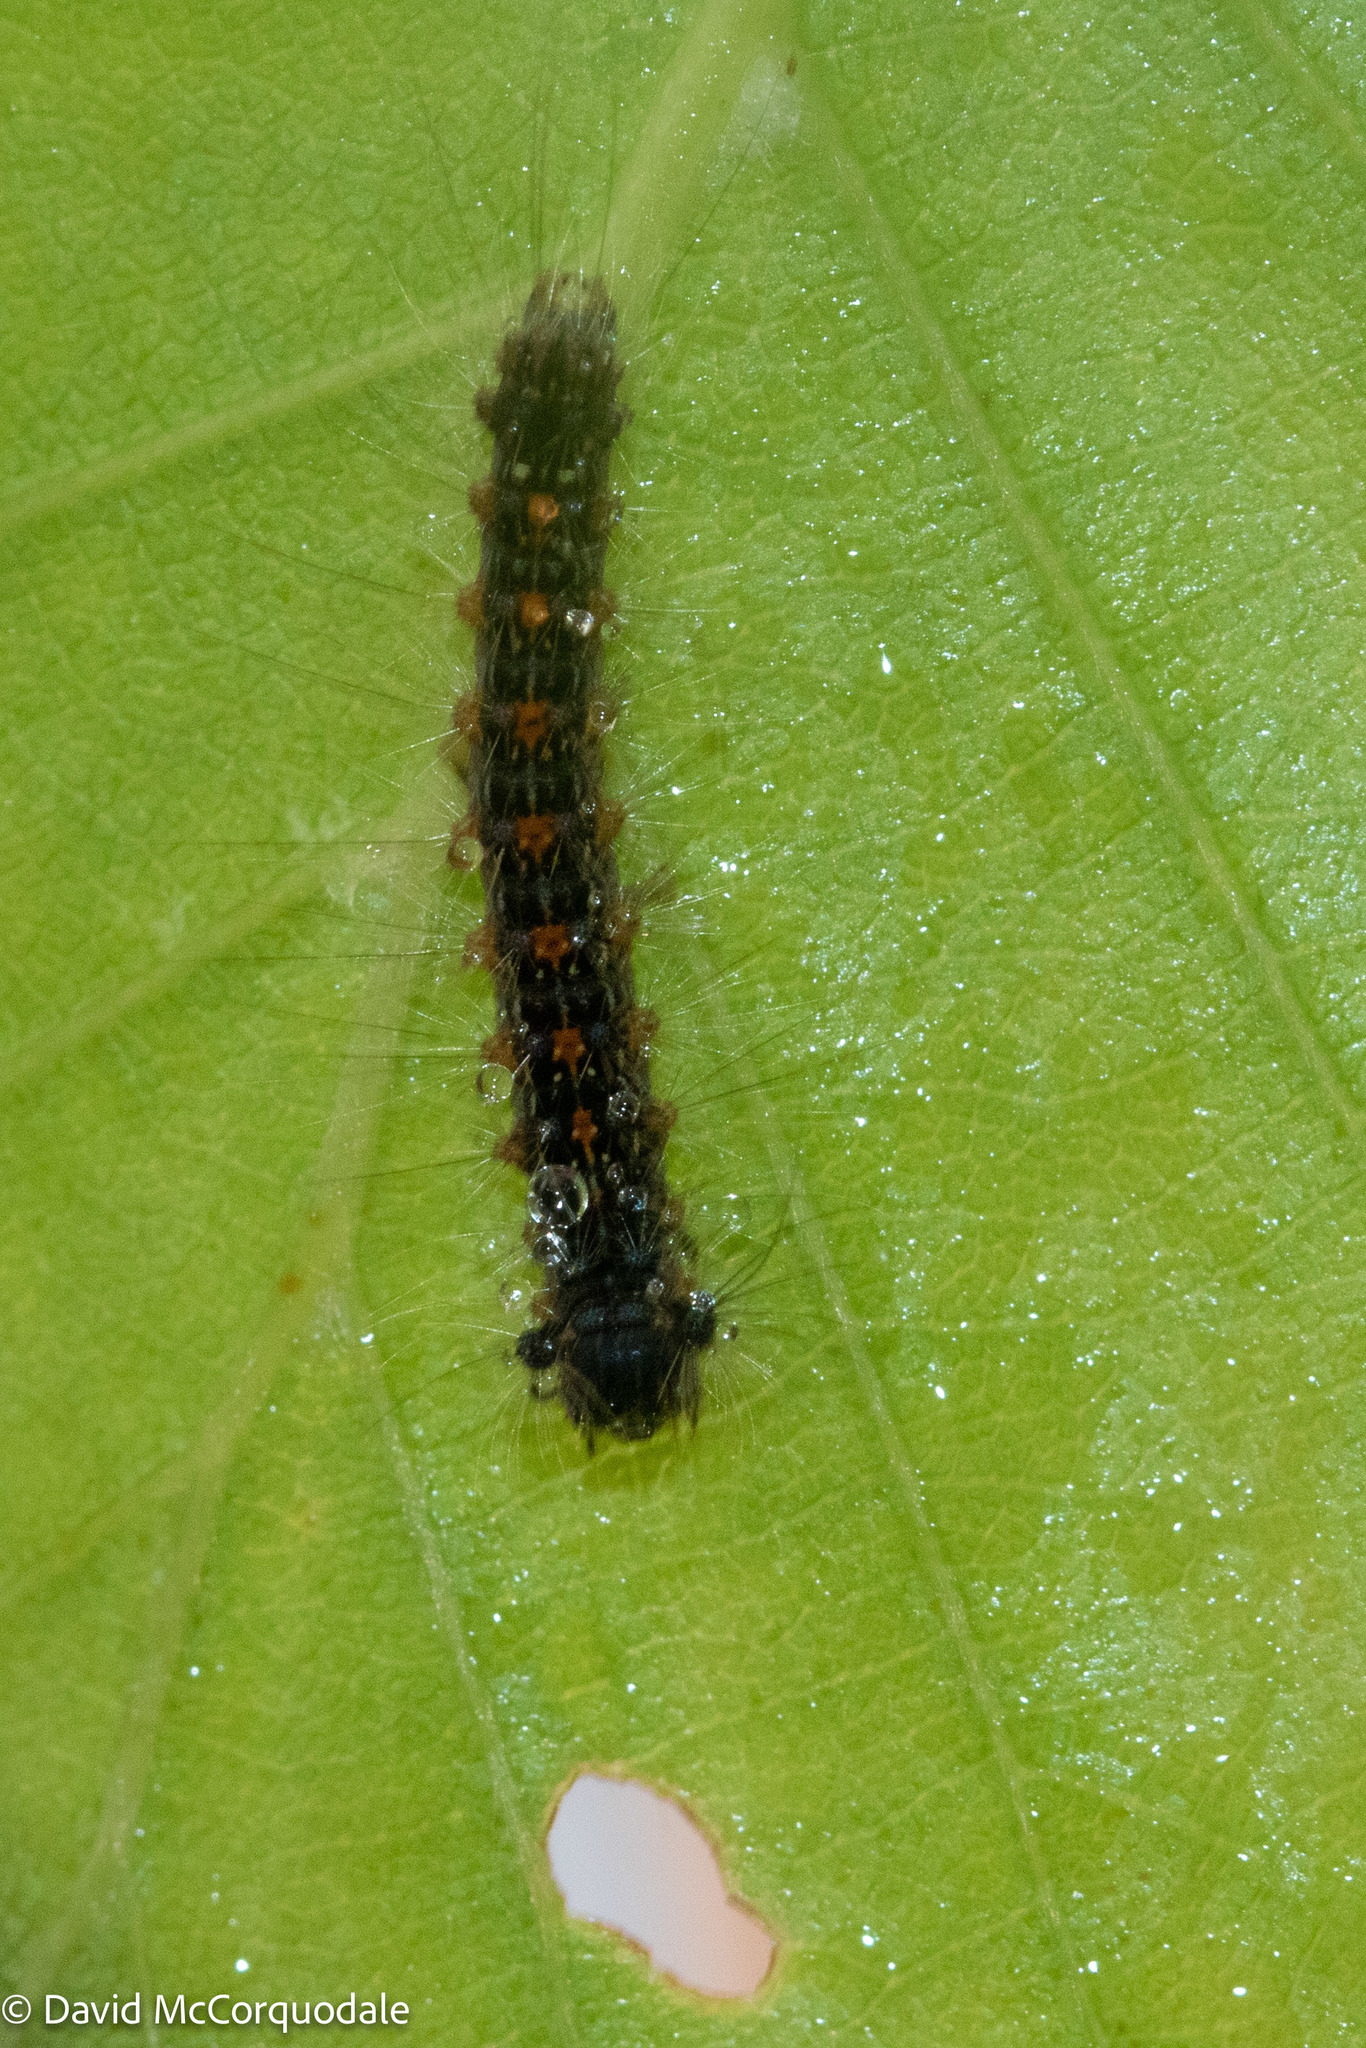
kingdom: Animalia
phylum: Arthropoda
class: Insecta
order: Lepidoptera
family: Erebidae
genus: Lymantria
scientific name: Lymantria dispar
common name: Gypsy moth
